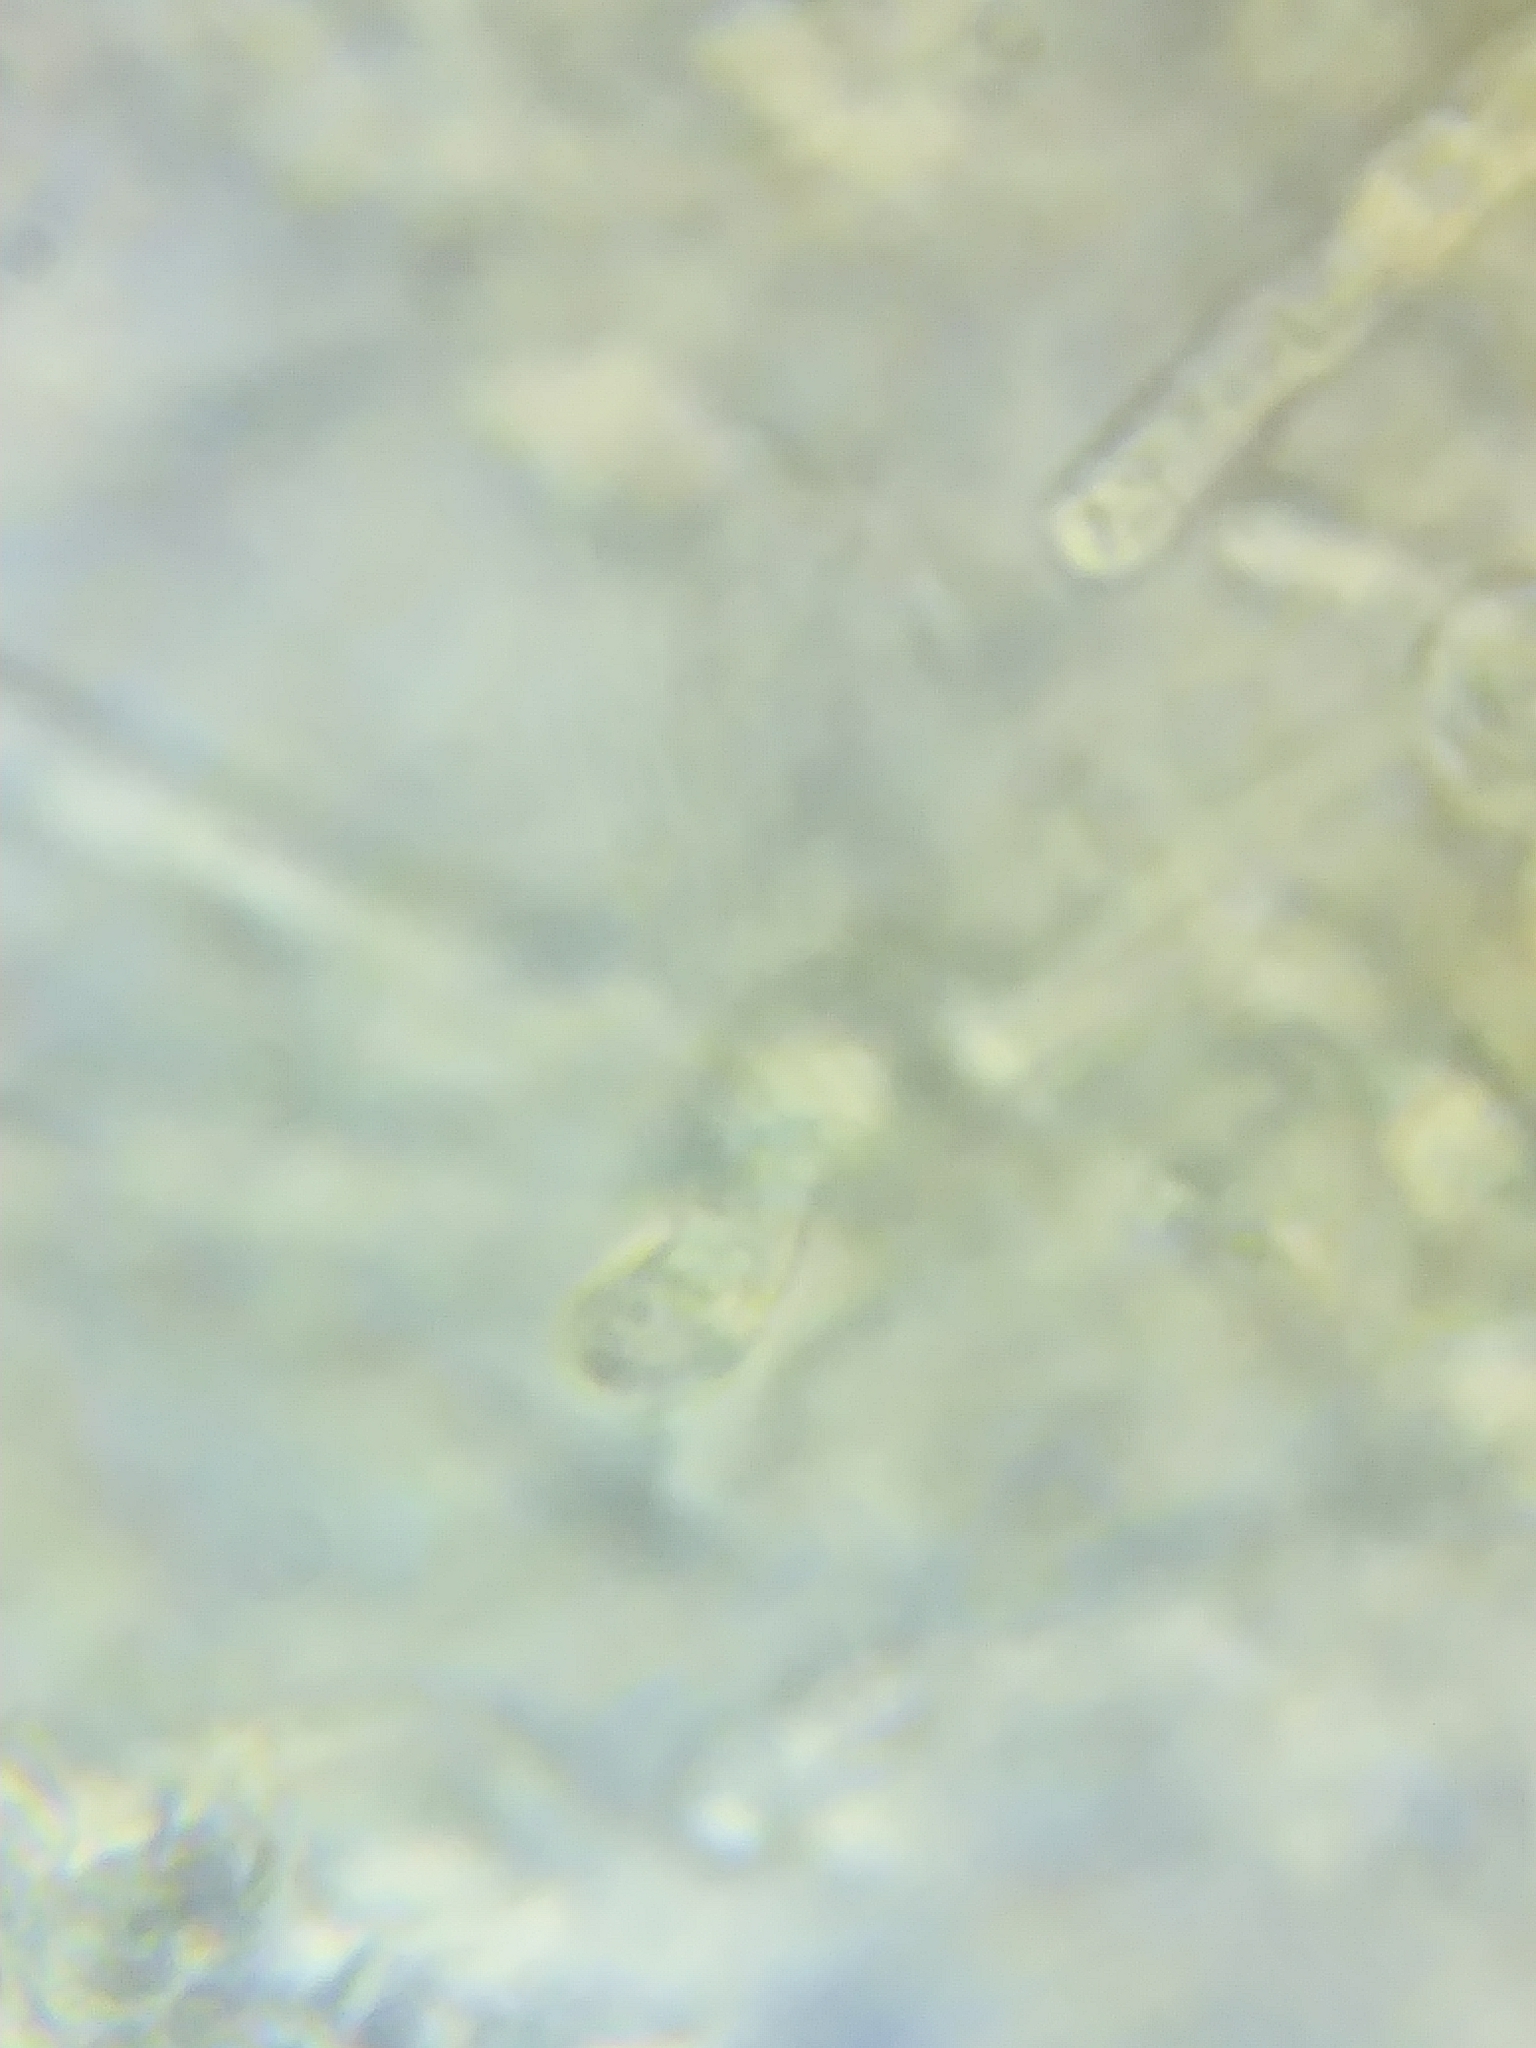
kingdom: Fungi
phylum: Basidiomycota
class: Agaricomycetes
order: Hymenochaetales
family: Hymenochaetaceae
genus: Inocutis
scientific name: Inocutis rheades
